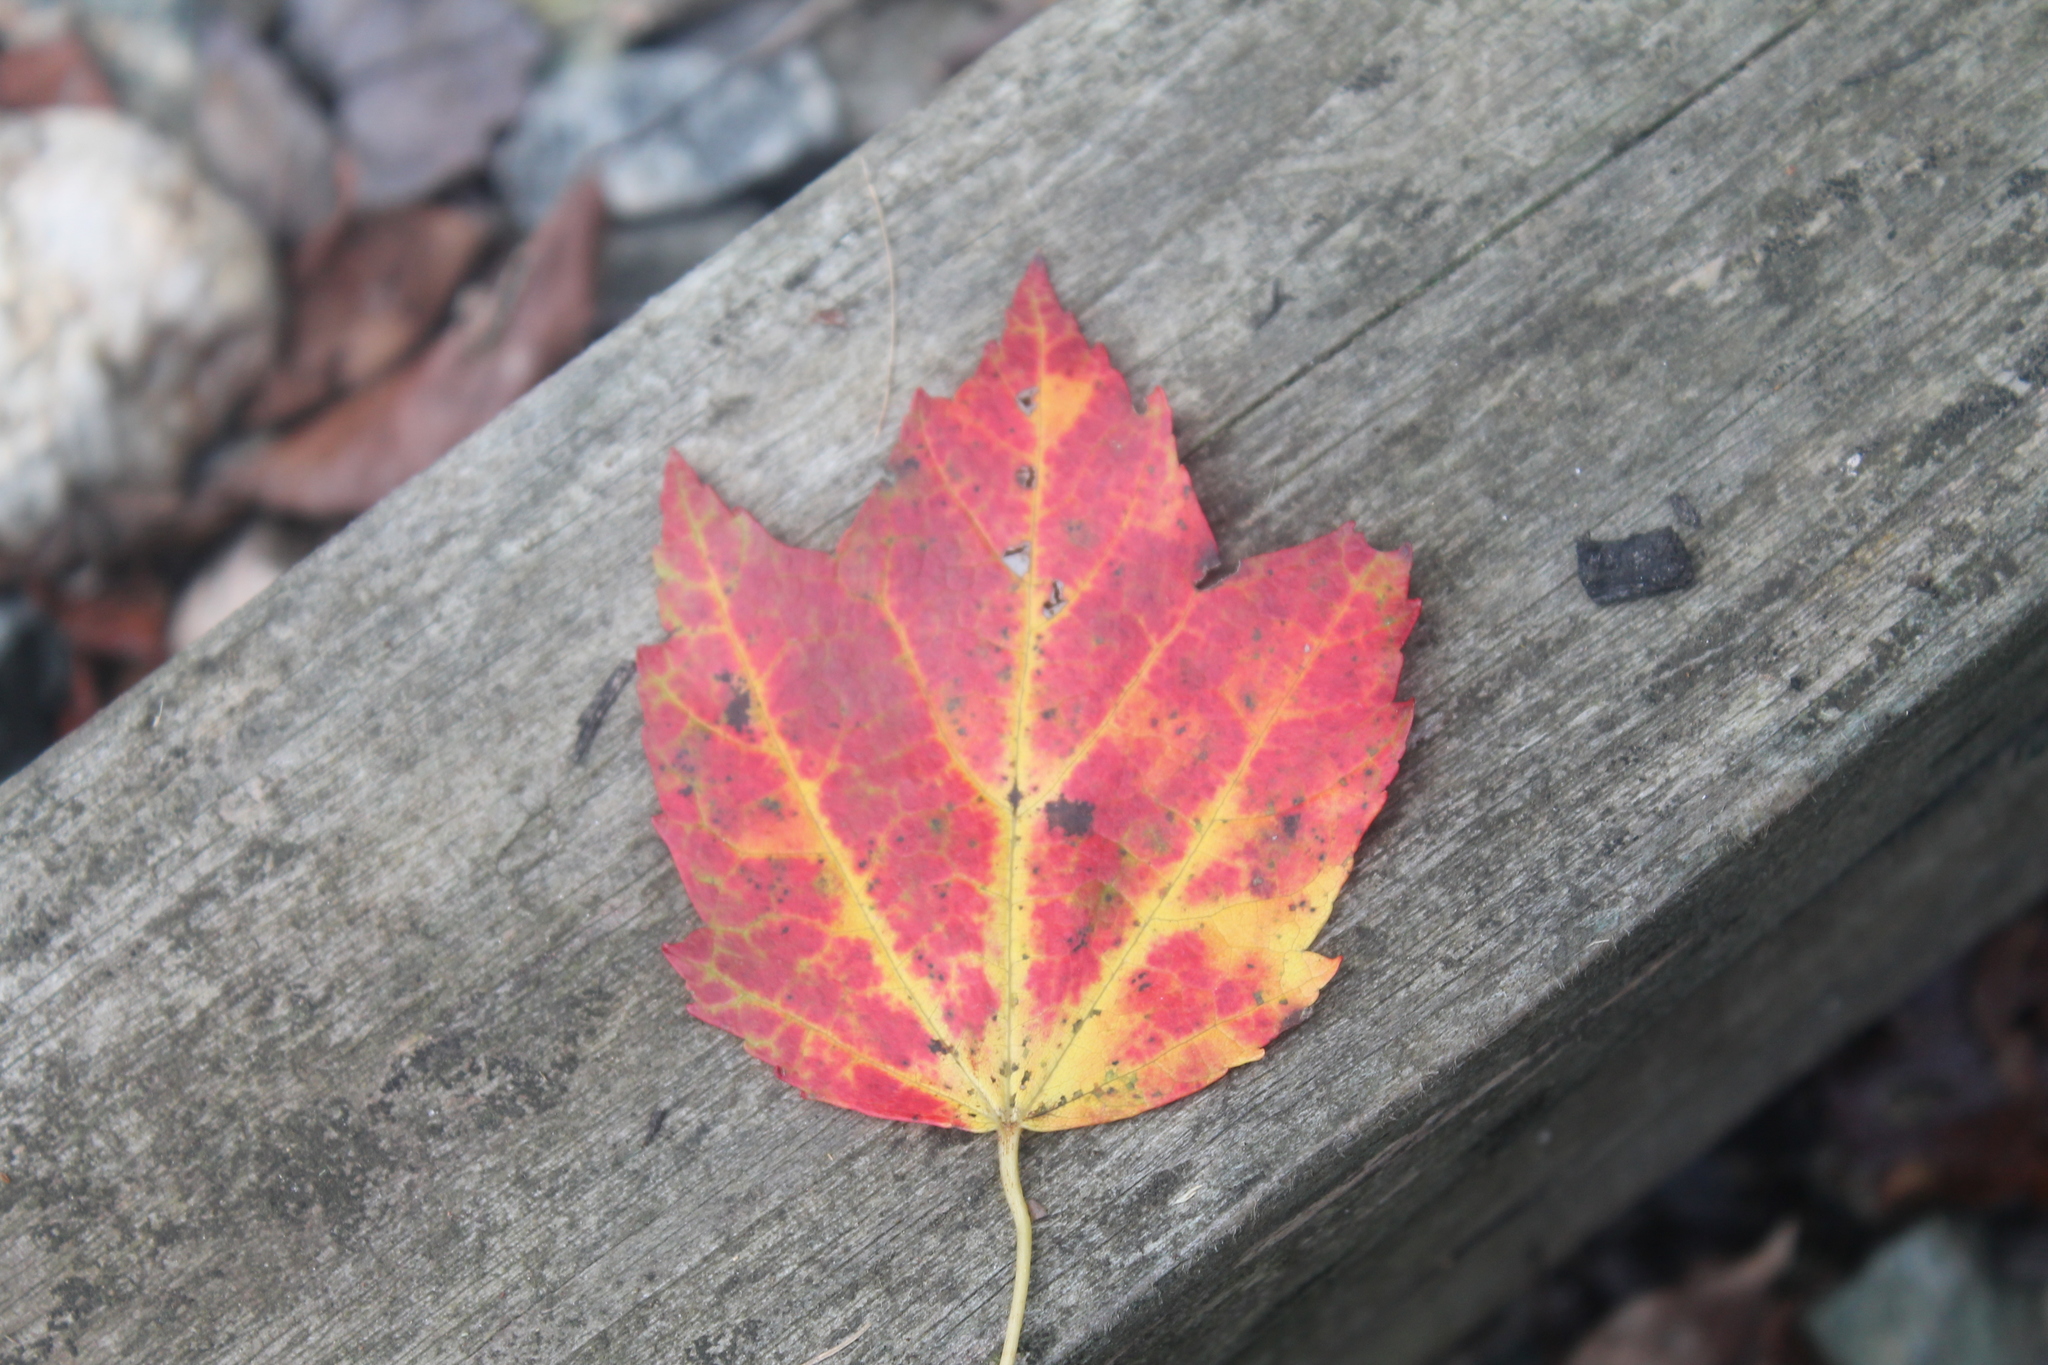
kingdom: Plantae
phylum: Tracheophyta
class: Magnoliopsida
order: Sapindales
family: Sapindaceae
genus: Acer
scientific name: Acer rubrum
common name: Red maple
